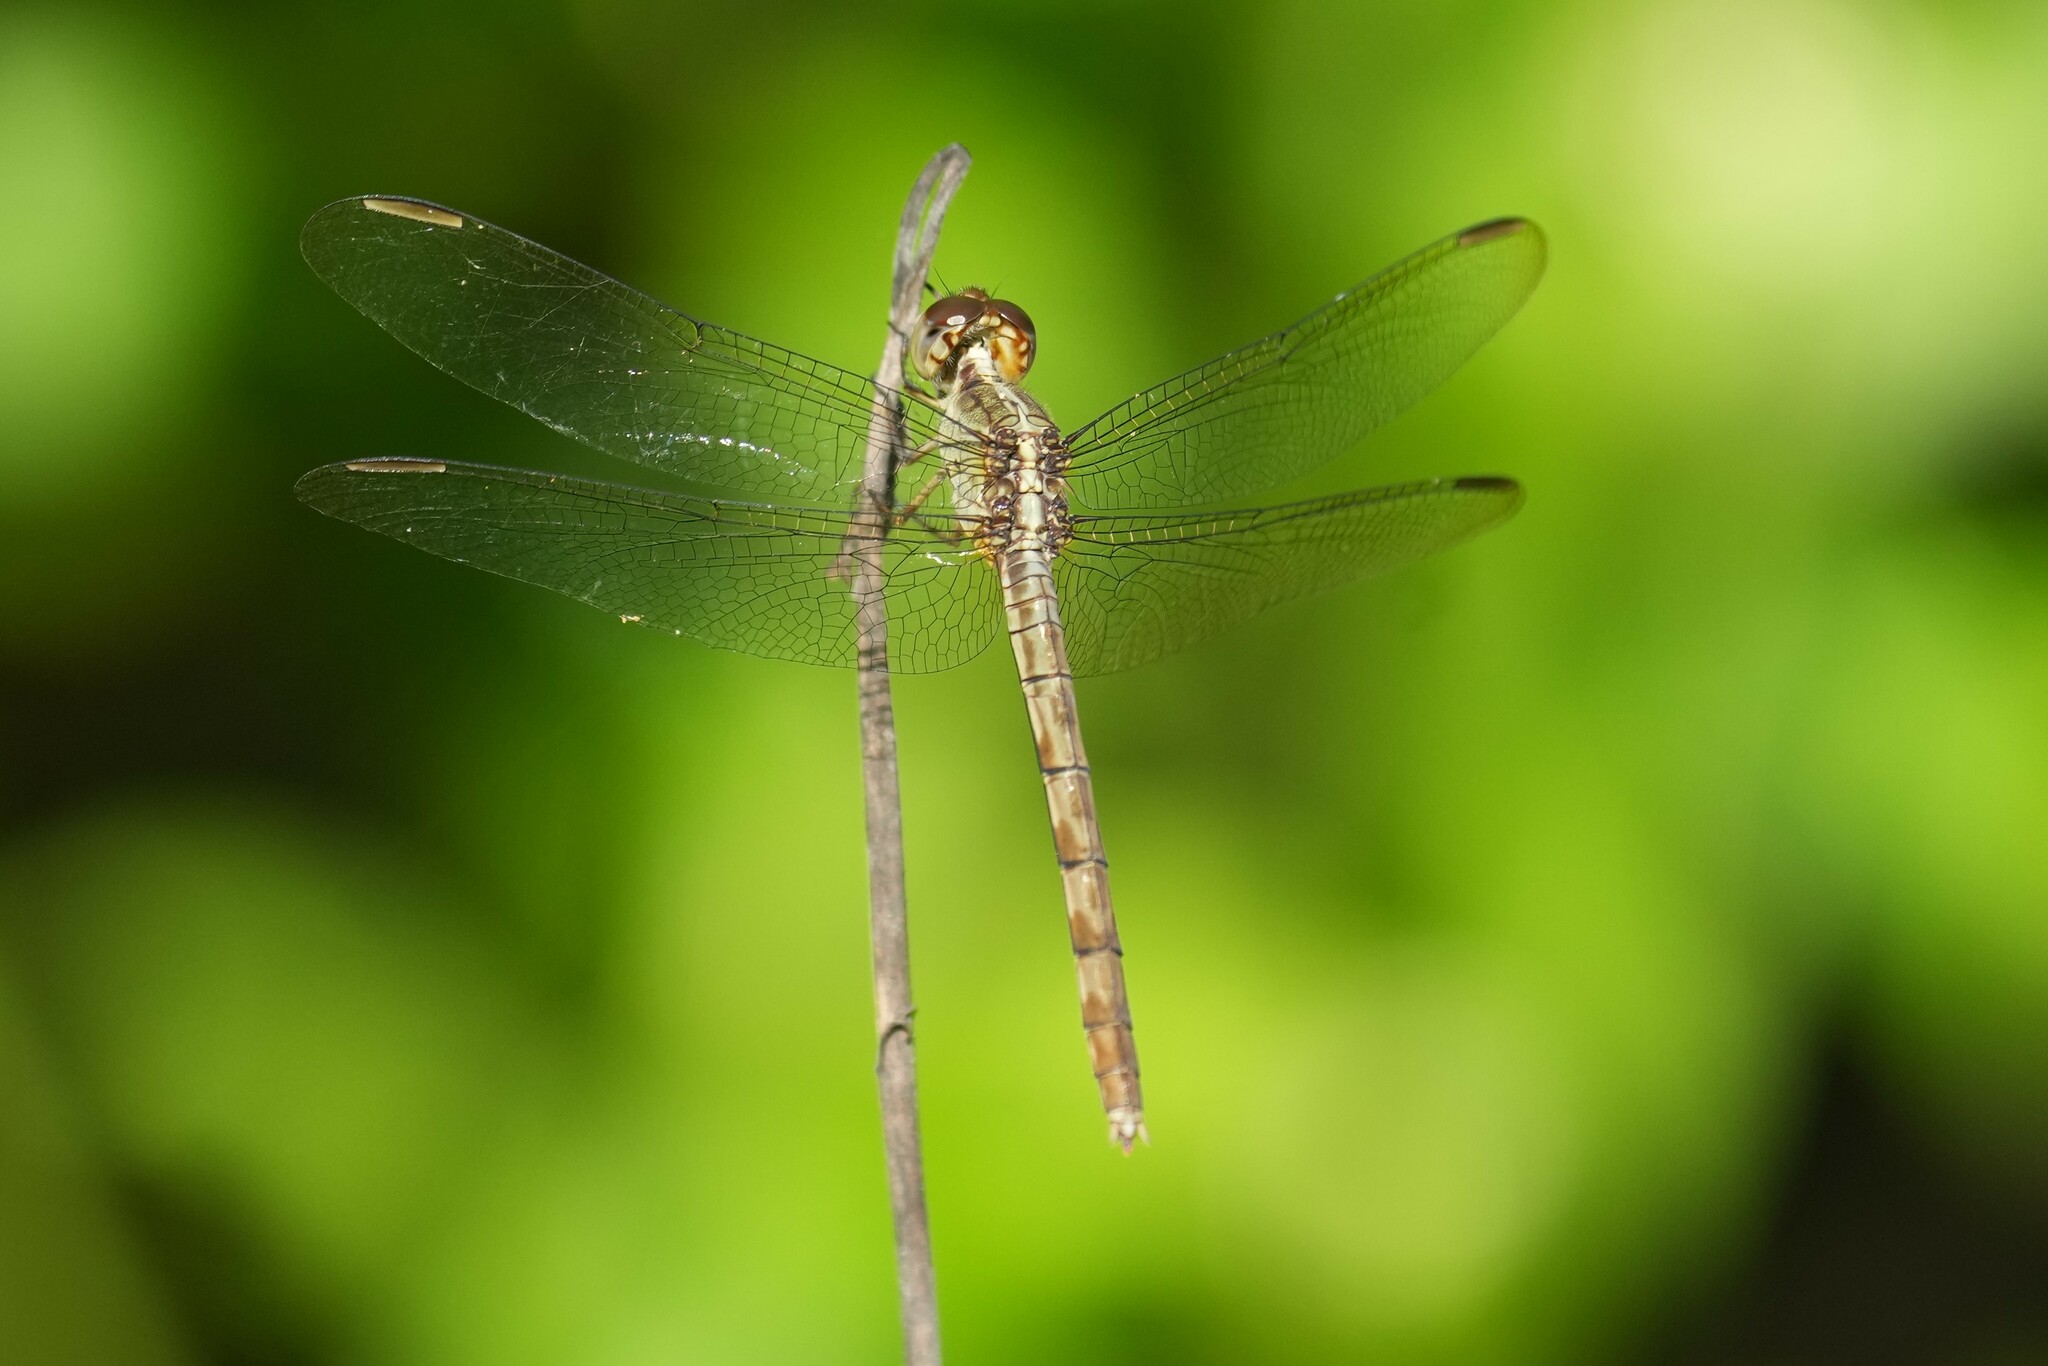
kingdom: Animalia
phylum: Arthropoda
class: Insecta
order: Odonata
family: Libellulidae
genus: Erythrodiplax
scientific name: Erythrodiplax umbrata
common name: Band-winged dragonlet
